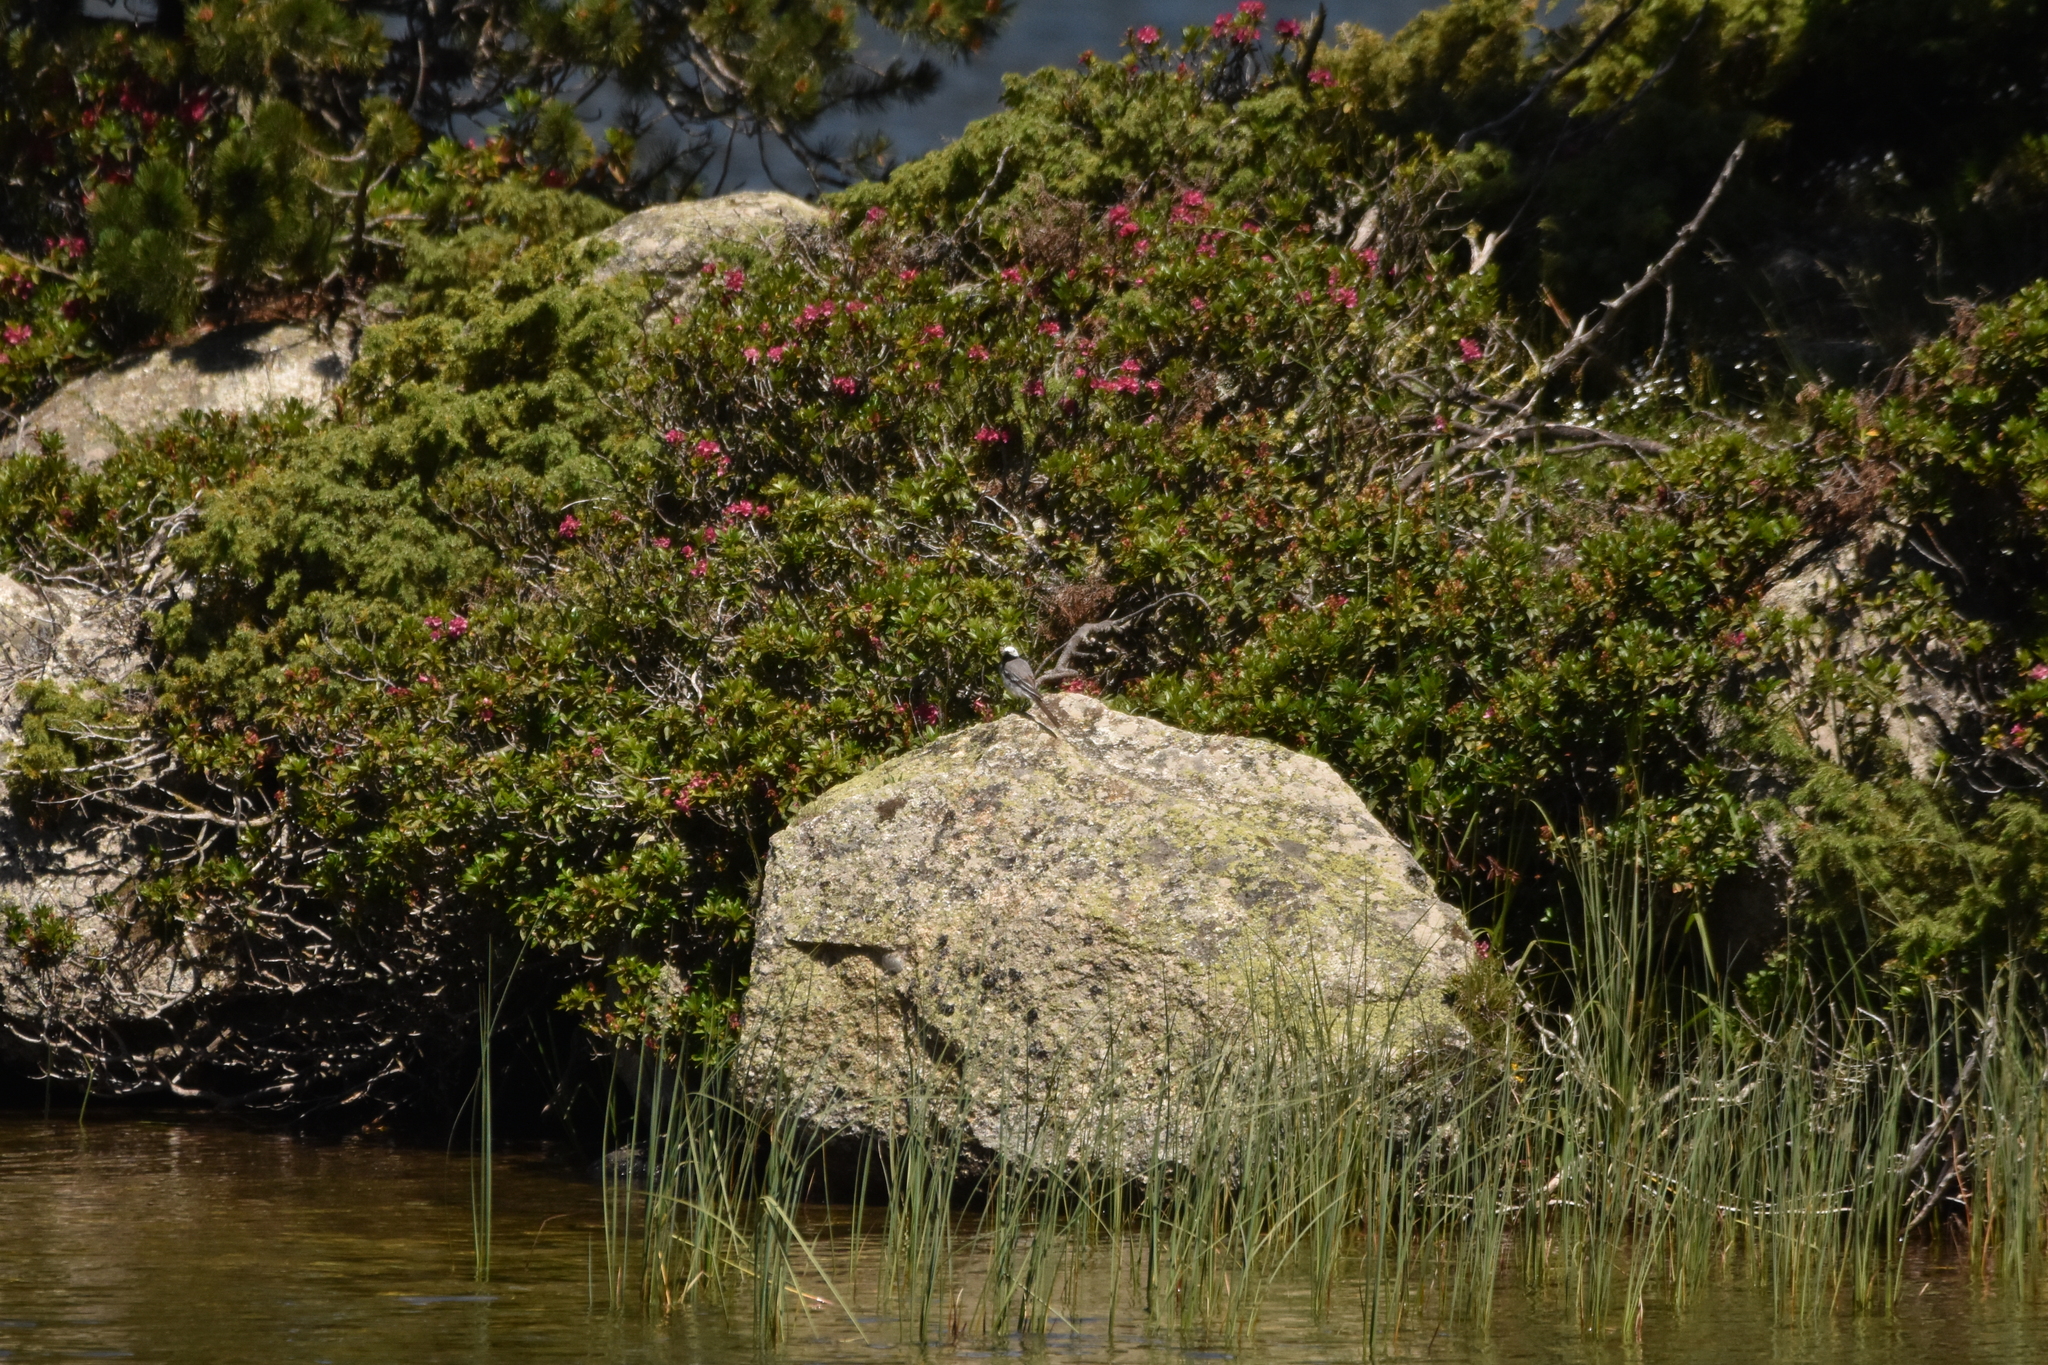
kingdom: Animalia
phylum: Chordata
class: Aves
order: Passeriformes
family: Motacillidae
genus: Motacilla
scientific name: Motacilla alba
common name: White wagtail
